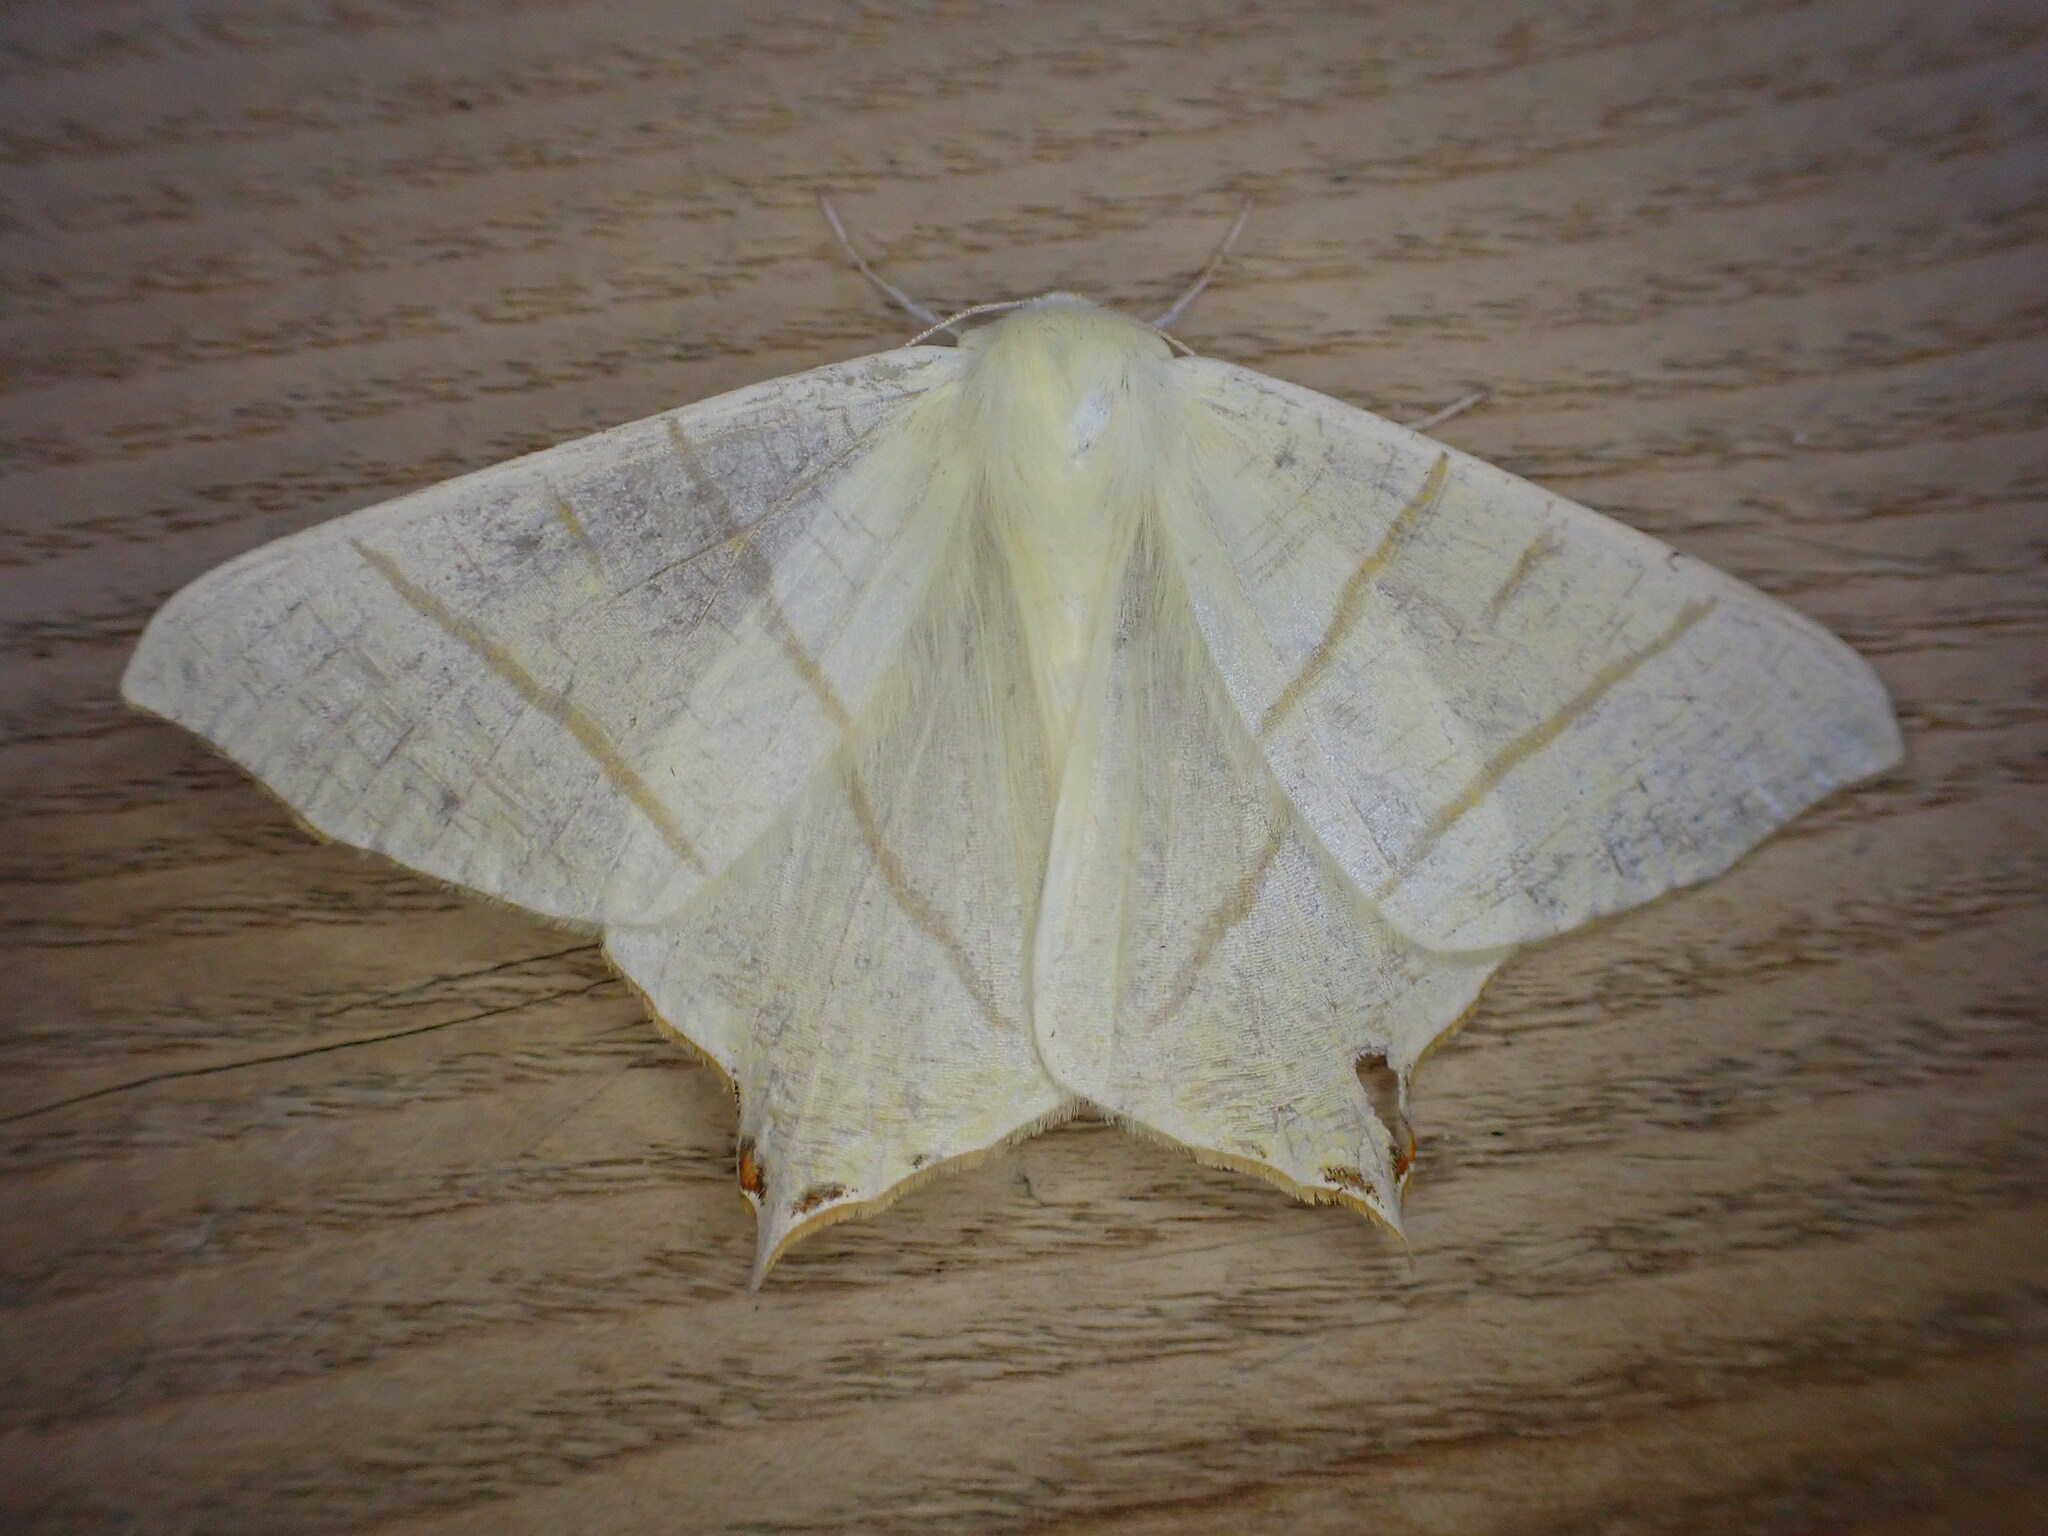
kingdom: Animalia
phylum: Arthropoda
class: Insecta
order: Lepidoptera
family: Geometridae
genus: Ourapteryx
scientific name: Ourapteryx sambucaria
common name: Swallow-tailed moth
